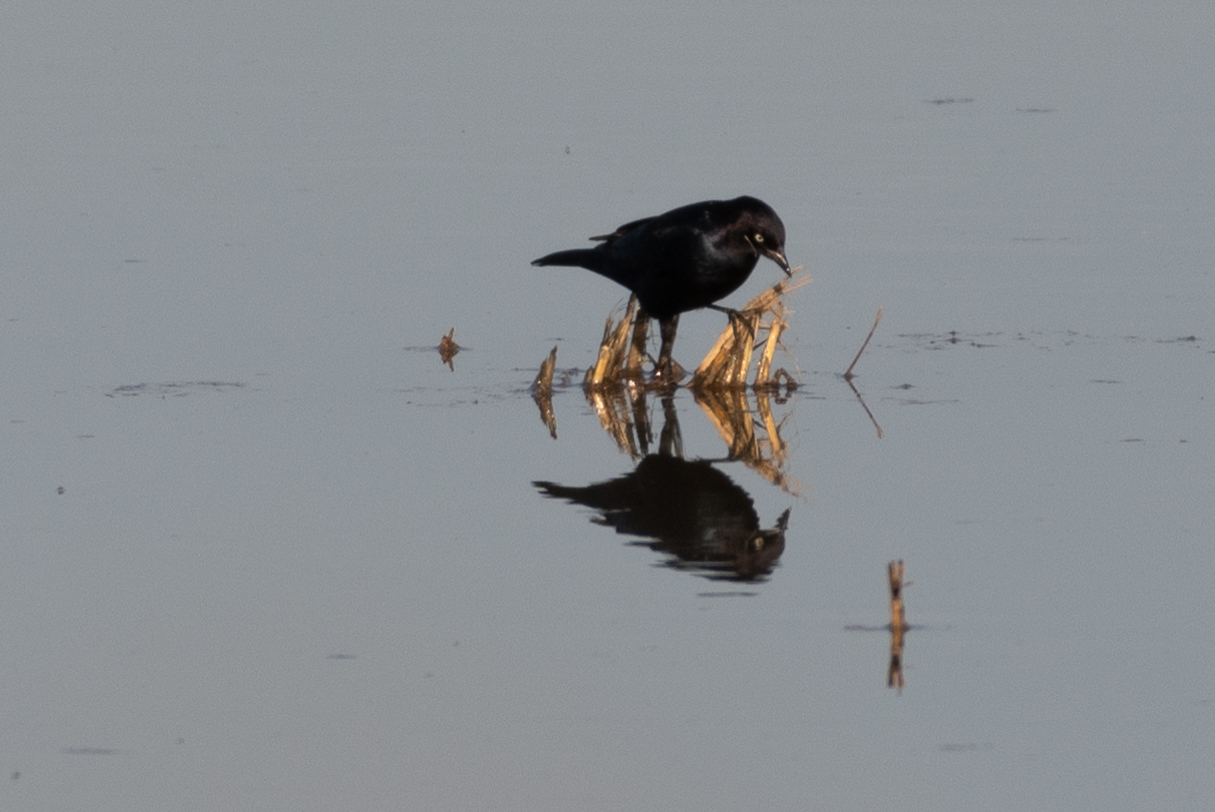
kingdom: Animalia
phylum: Chordata
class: Aves
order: Passeriformes
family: Icteridae
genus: Euphagus
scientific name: Euphagus cyanocephalus
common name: Brewer's blackbird
